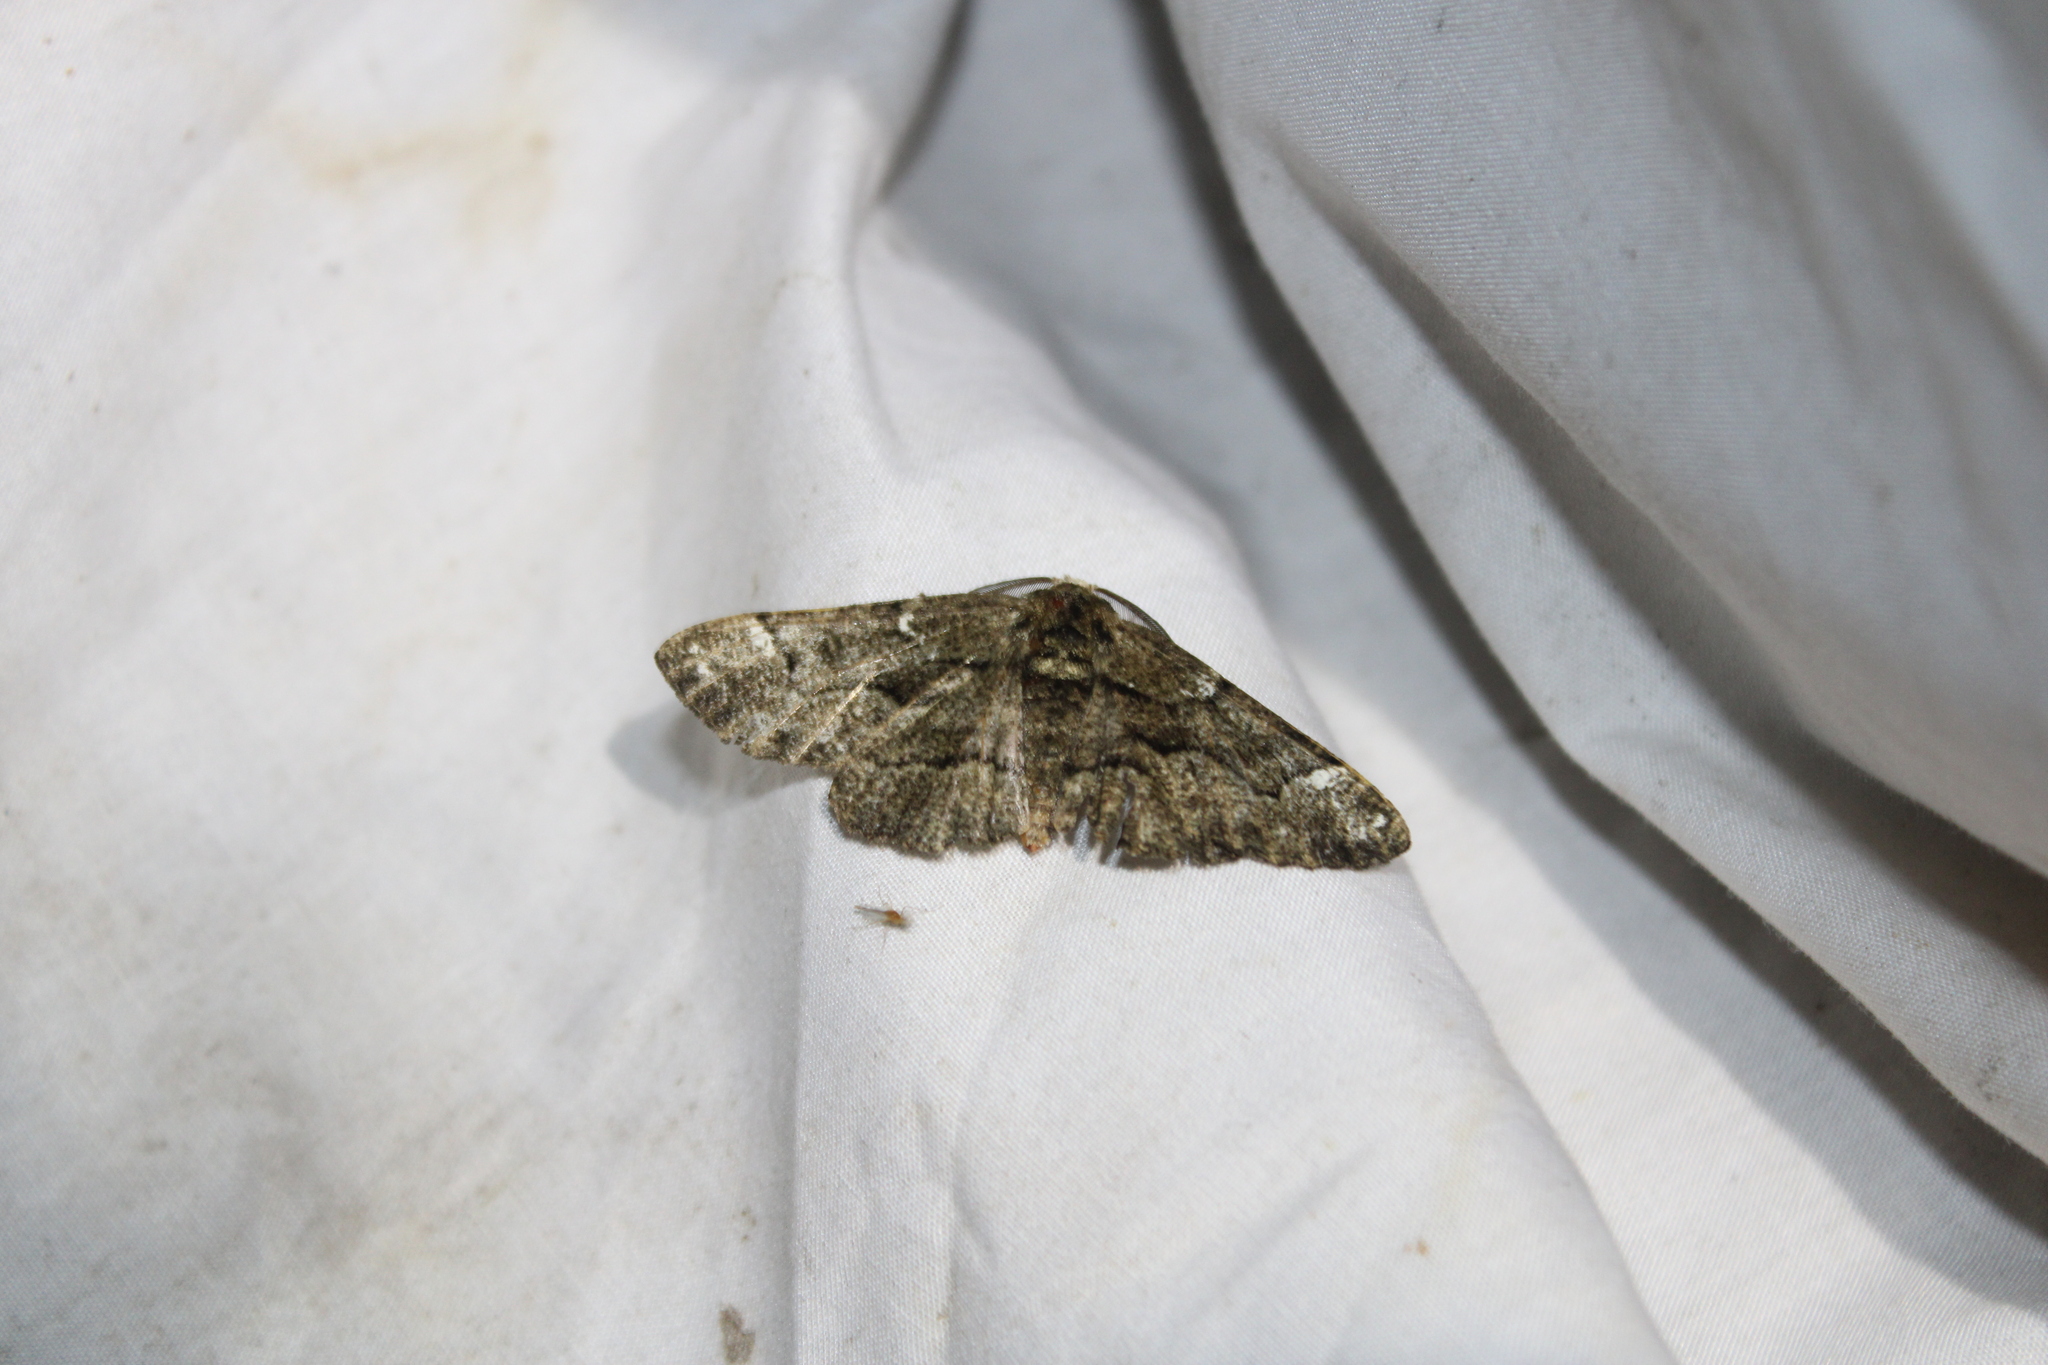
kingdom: Animalia
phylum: Arthropoda
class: Insecta
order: Lepidoptera
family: Geometridae
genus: Phaeoura
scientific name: Phaeoura quernaria
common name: Oak beauty
